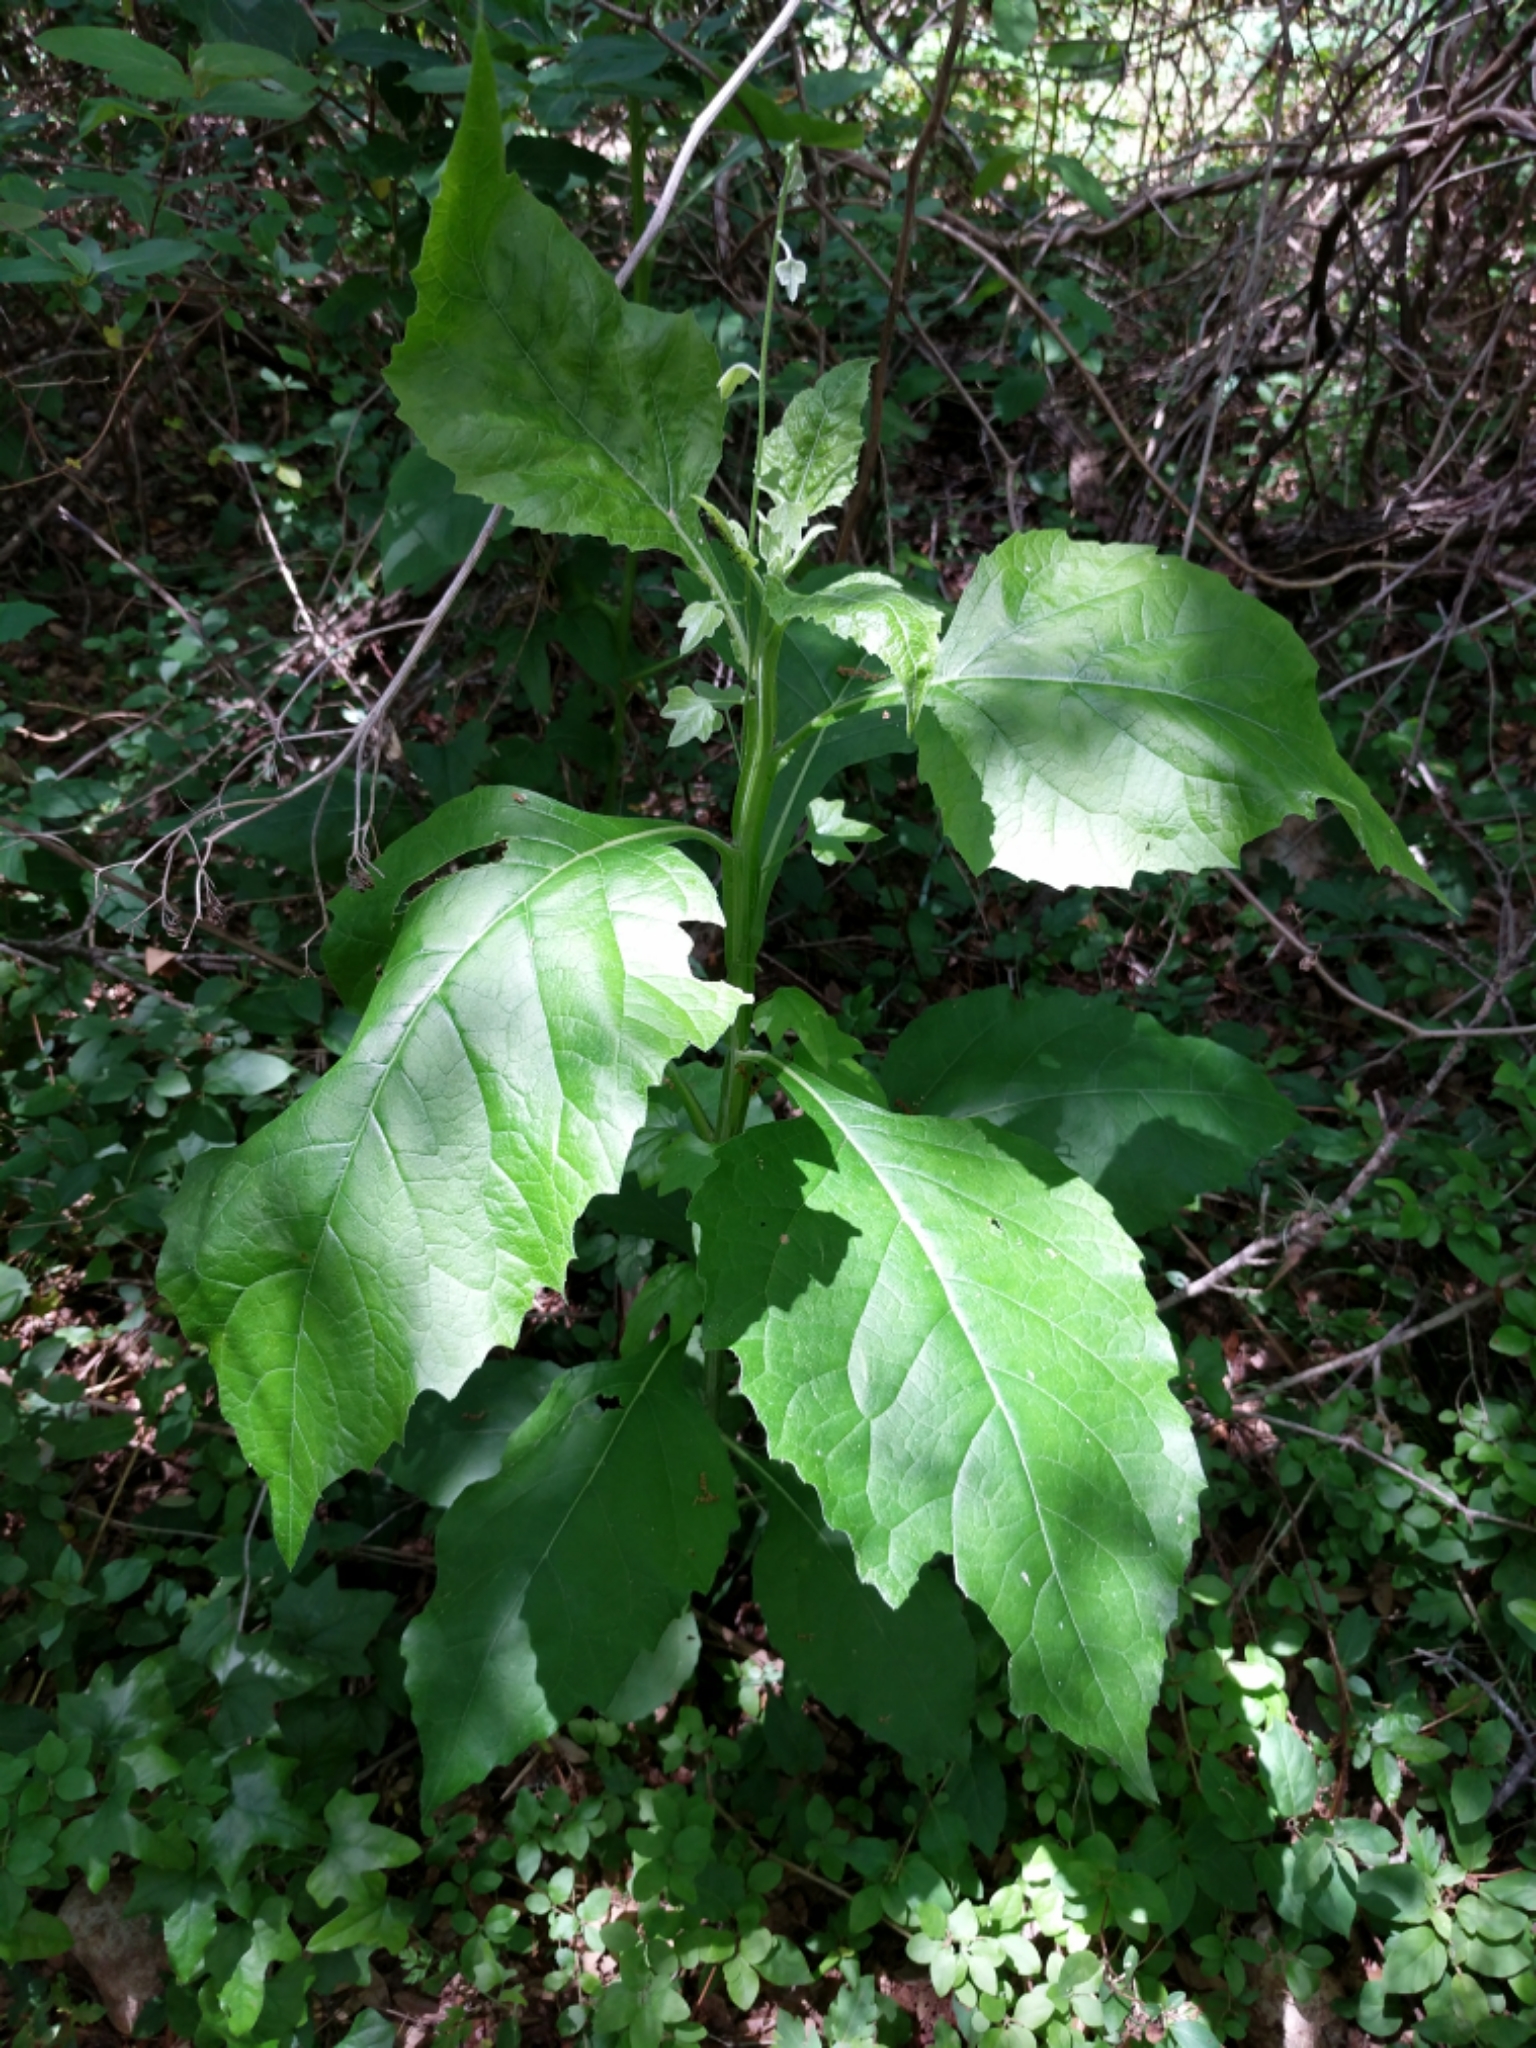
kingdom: Plantae
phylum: Tracheophyta
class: Magnoliopsida
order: Asterales
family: Asteraceae
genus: Verbesina
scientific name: Verbesina virginica
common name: Frostweed
